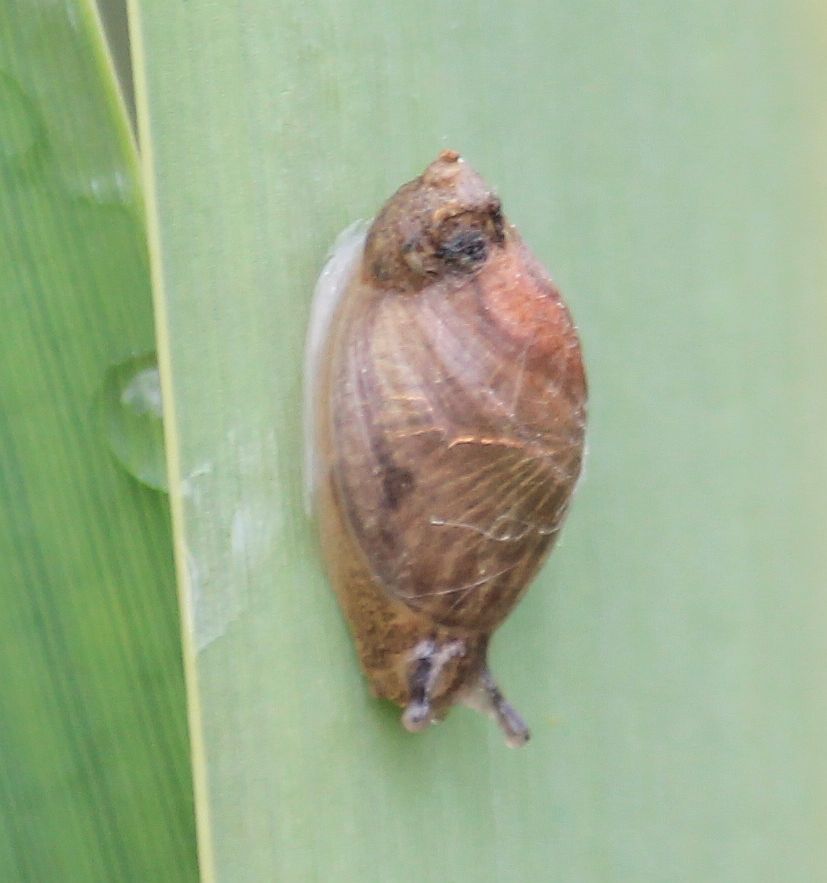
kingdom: Animalia
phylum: Mollusca
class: Gastropoda
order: Stylommatophora
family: Succineidae
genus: Succinea
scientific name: Succinea putris
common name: European ambersnail
